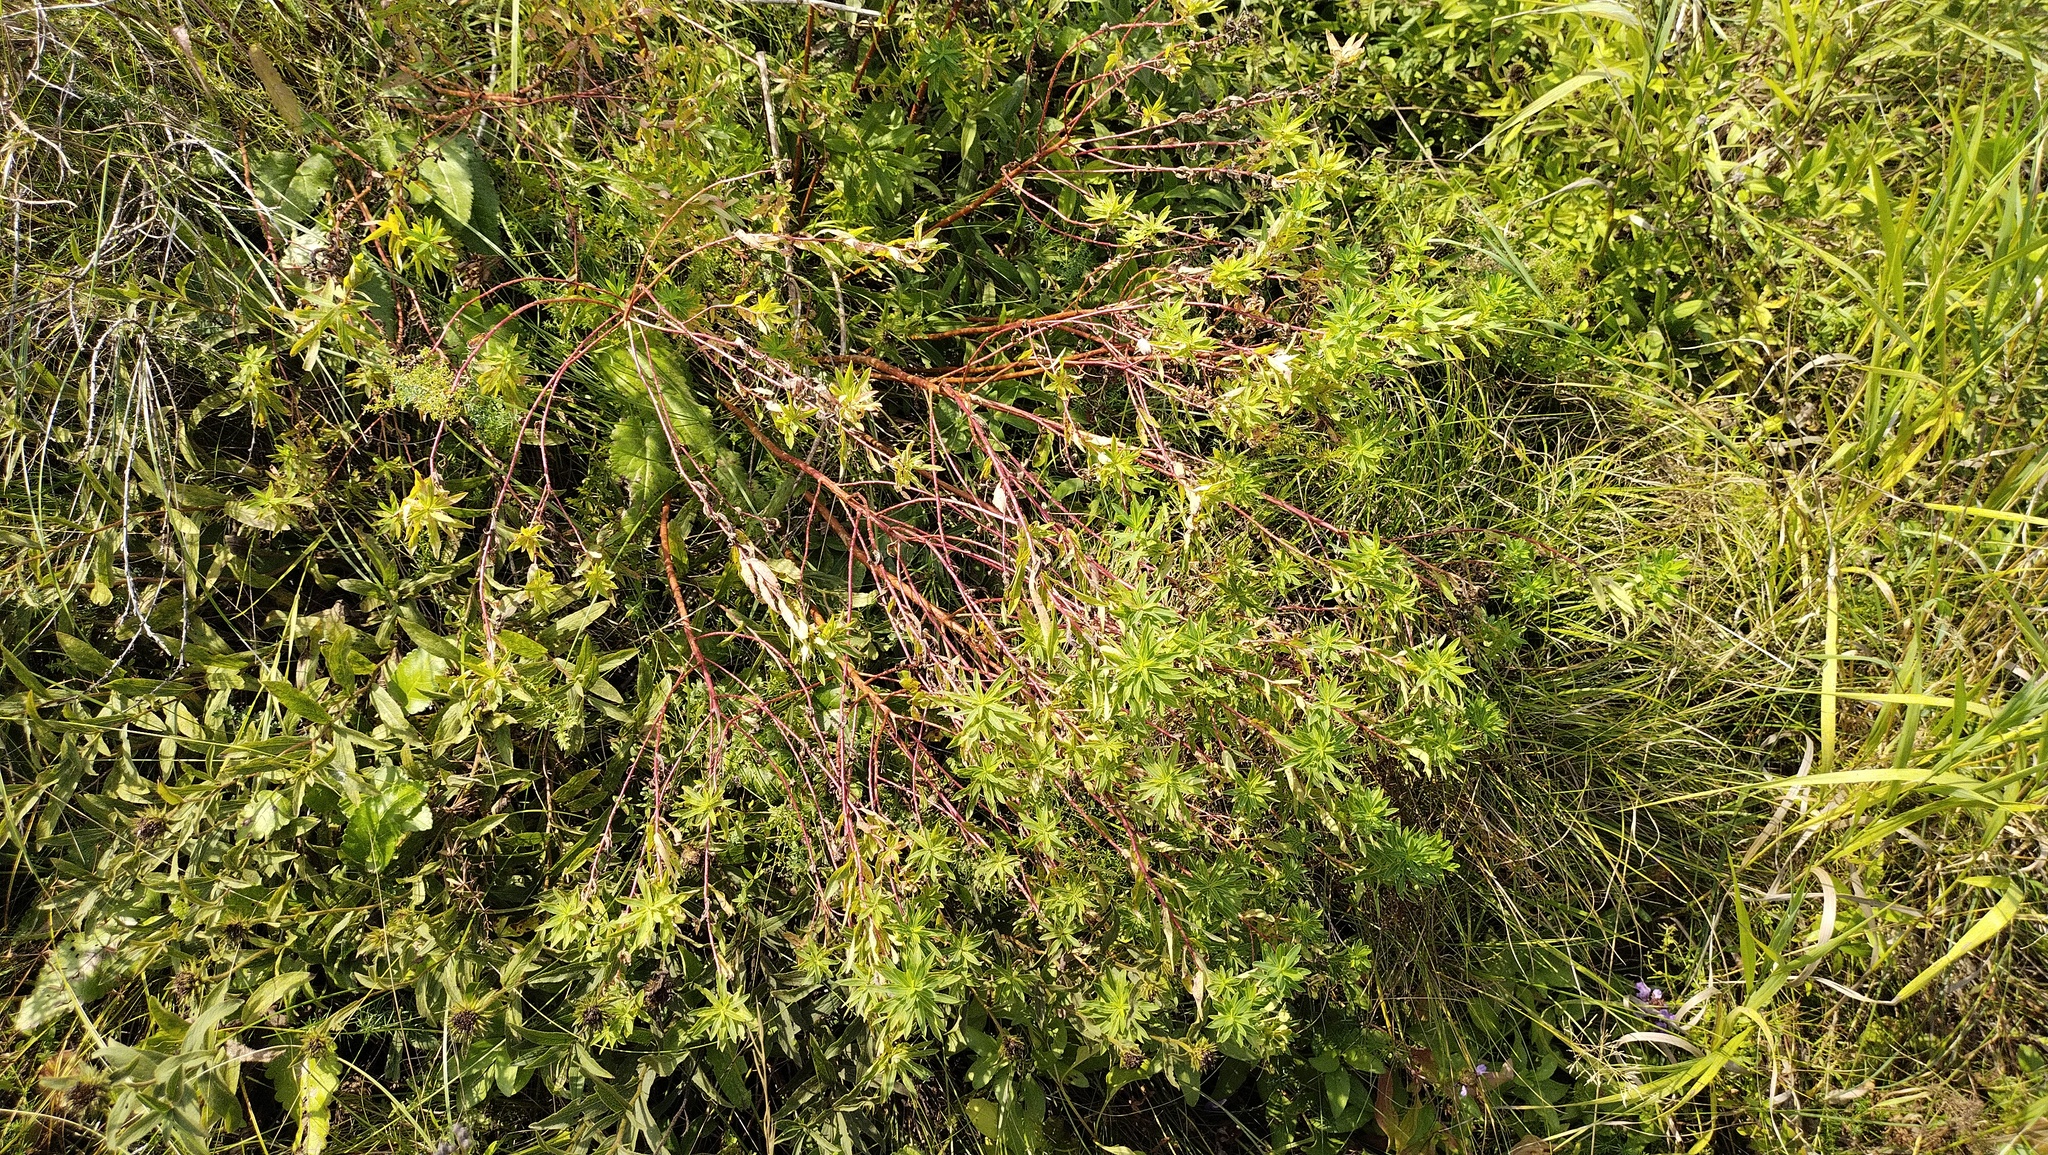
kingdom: Plantae
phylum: Tracheophyta
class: Magnoliopsida
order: Malpighiales
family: Euphorbiaceae
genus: Euphorbia
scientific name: Euphorbia semivillosa
